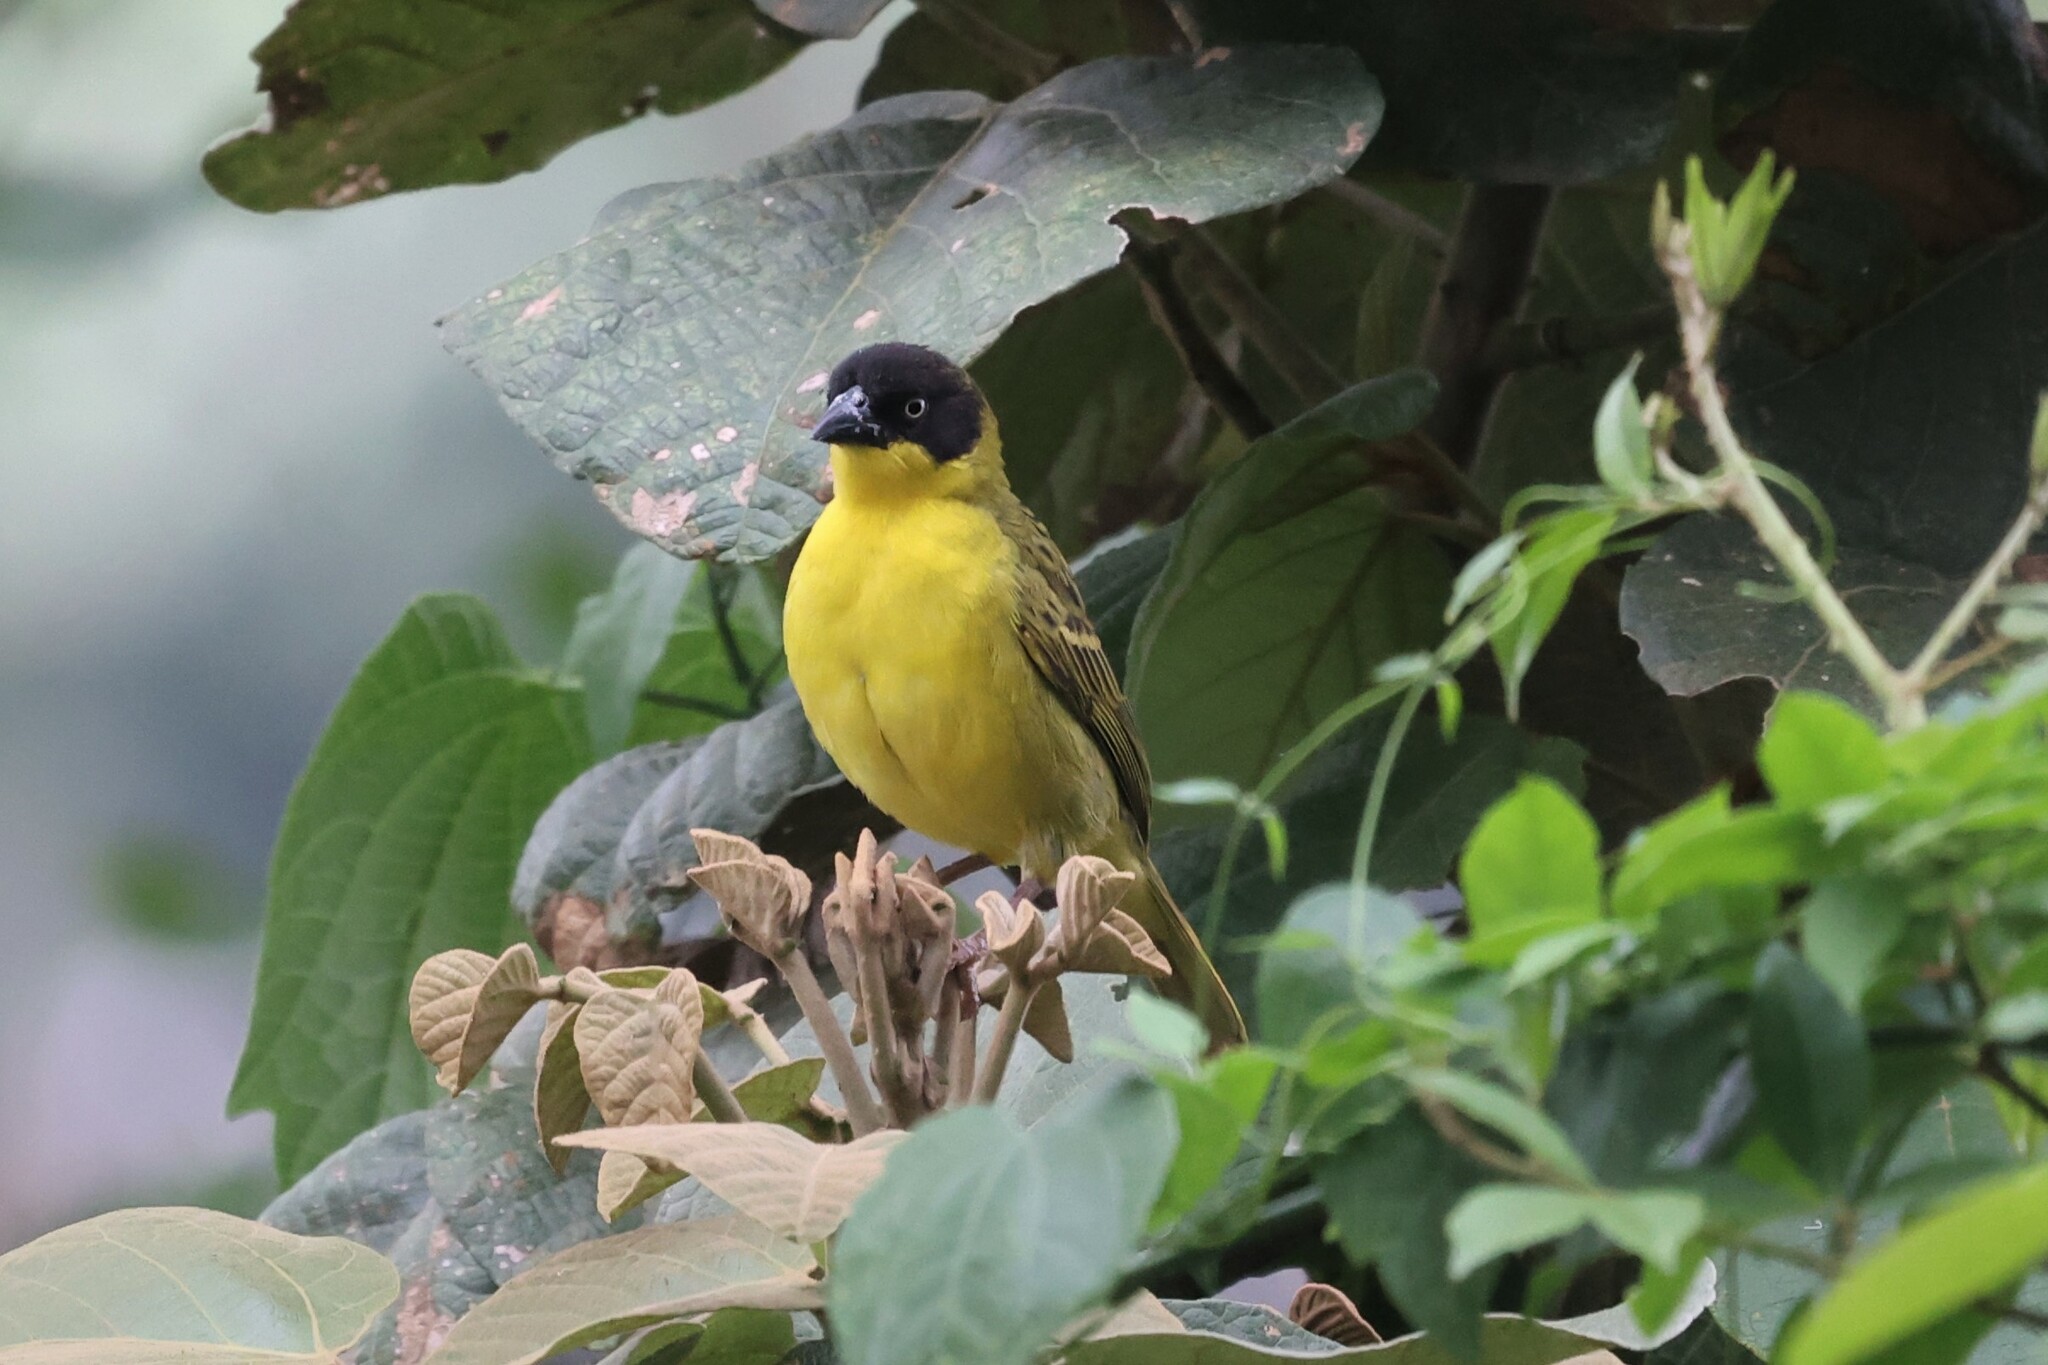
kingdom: Animalia
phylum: Chordata
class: Aves
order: Passeriformes
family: Ploceidae
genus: Ploceus
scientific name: Ploceus baglafecht
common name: Baglafecht weaver
